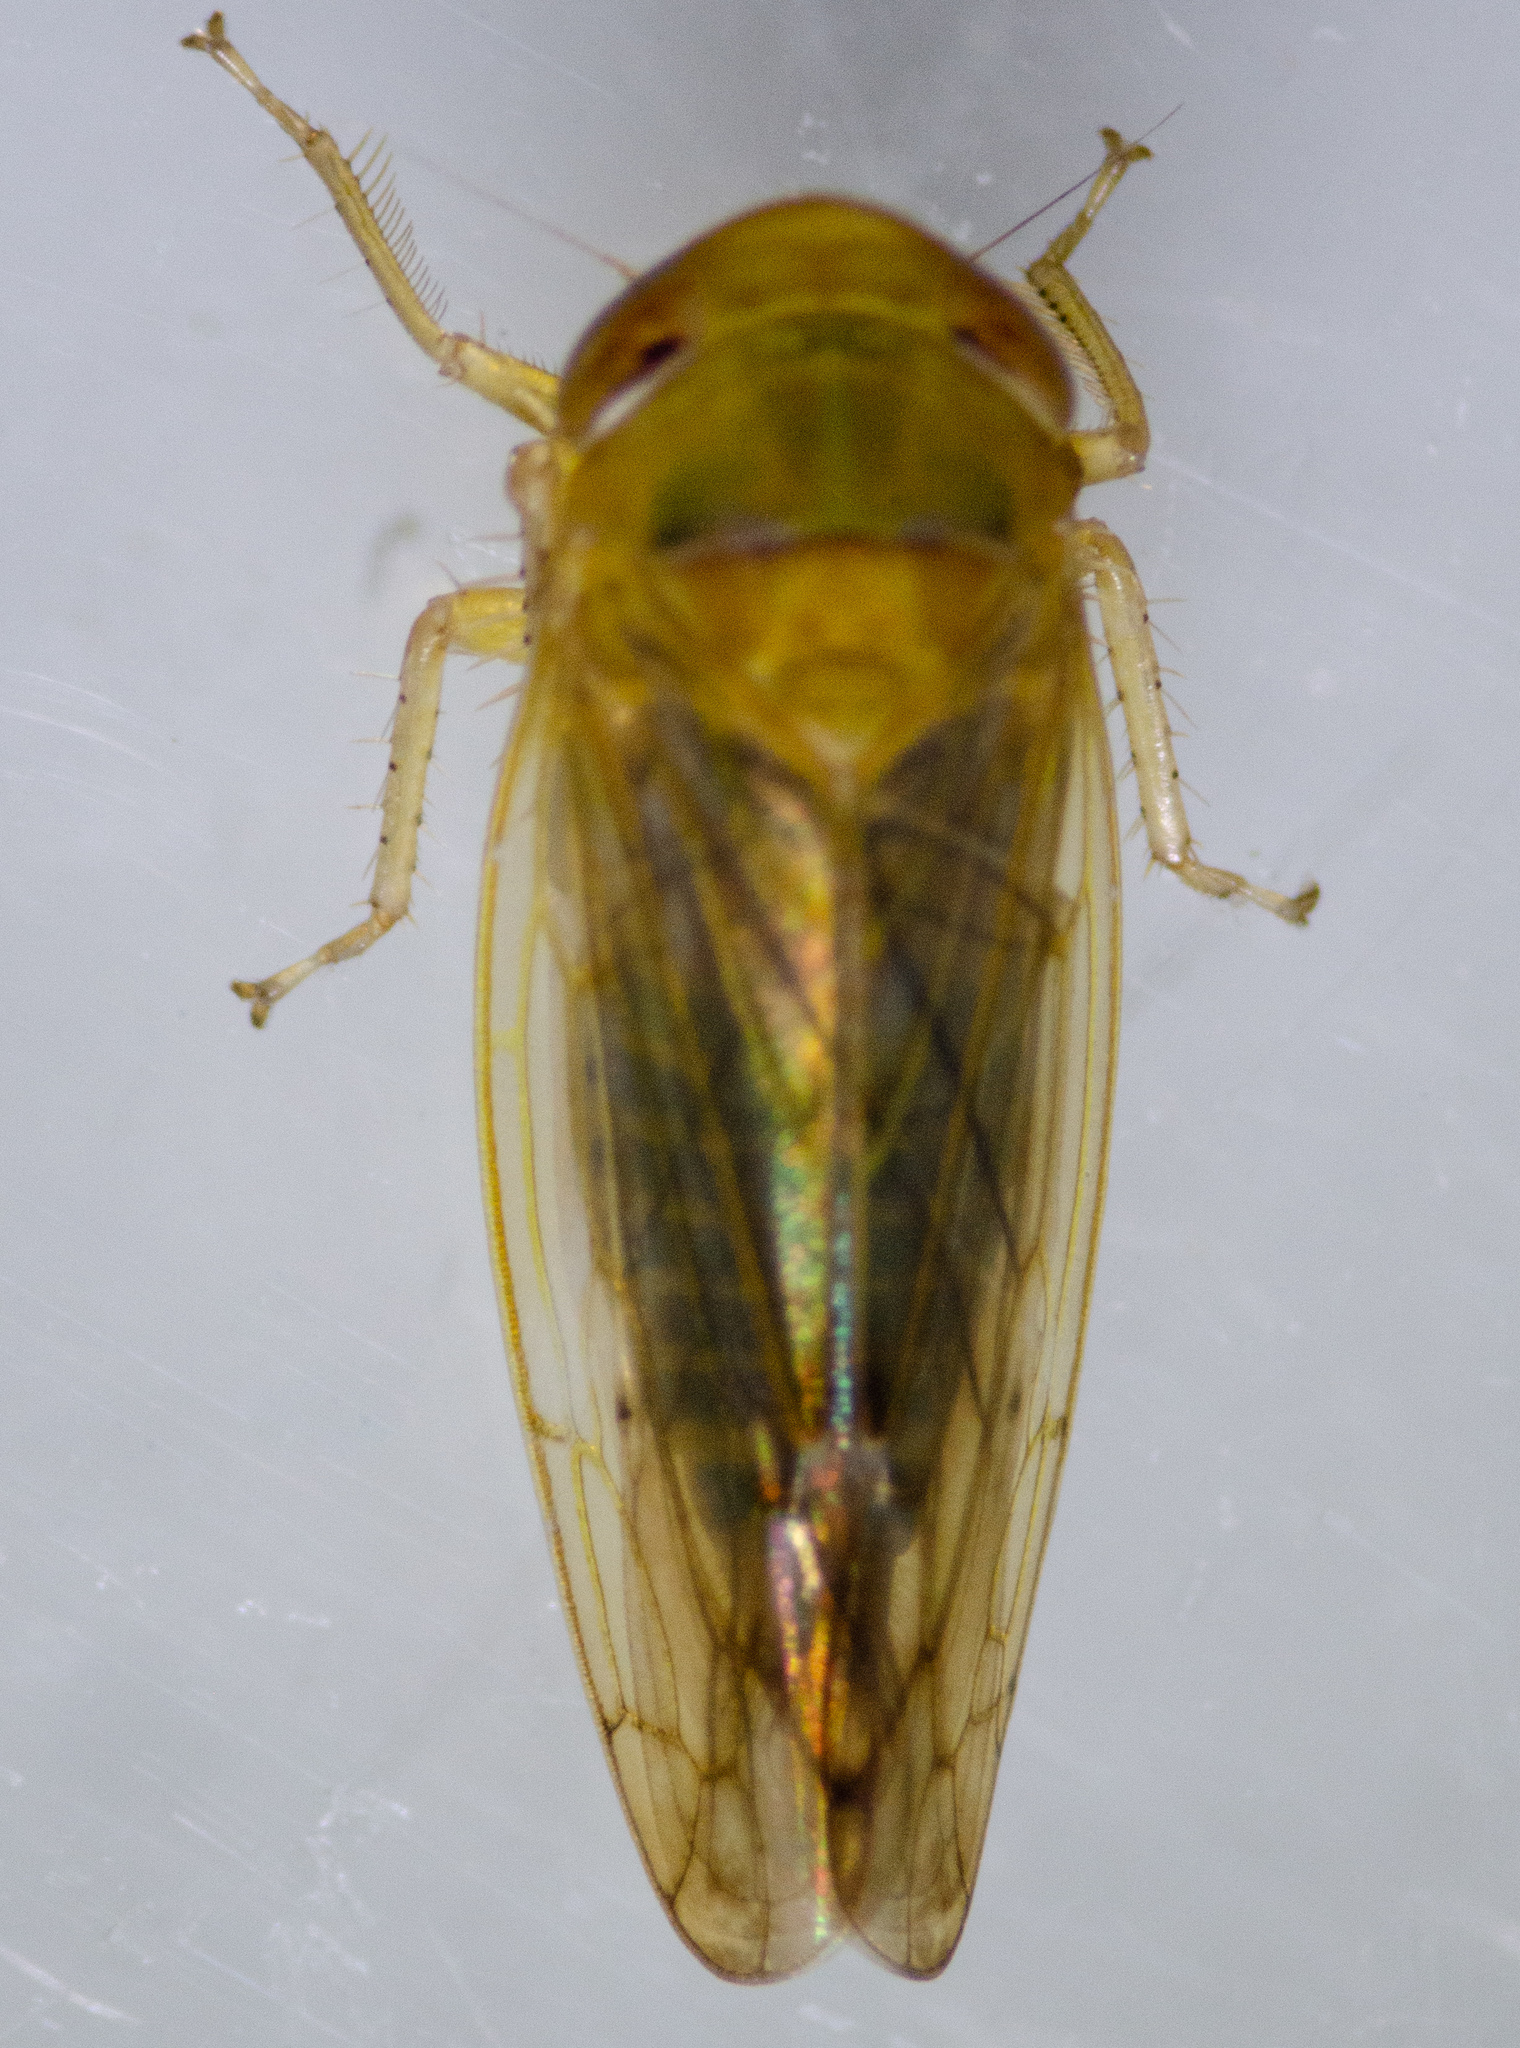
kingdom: Animalia
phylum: Arthropoda
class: Insecta
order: Hemiptera
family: Cicadellidae
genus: Eutettix
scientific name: Eutettix latus
